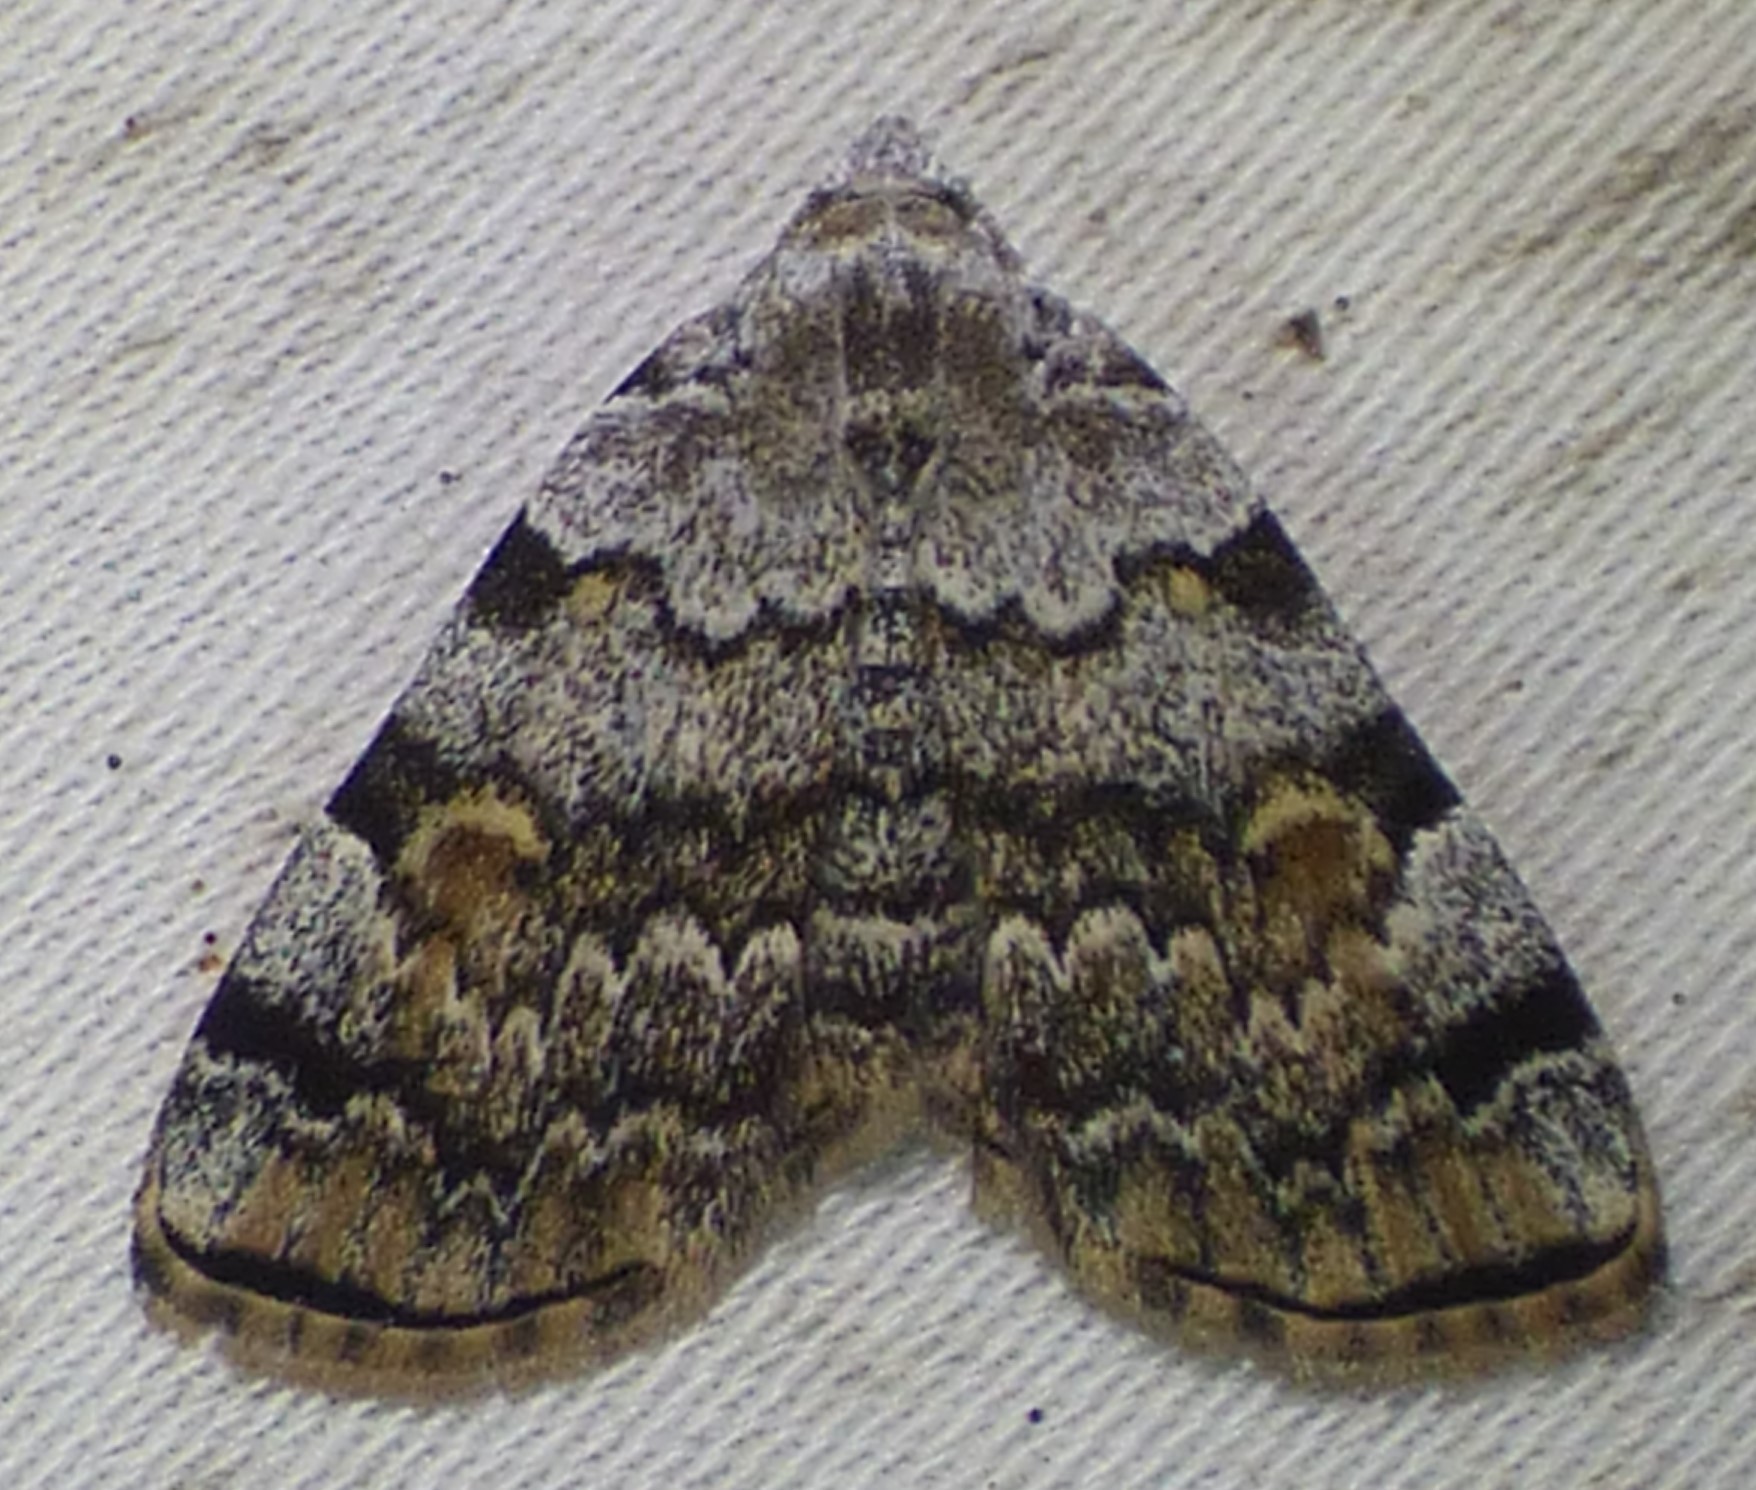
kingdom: Animalia
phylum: Arthropoda
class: Insecta
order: Lepidoptera
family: Erebidae
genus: Idia
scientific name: Idia americalis
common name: American idia moth
